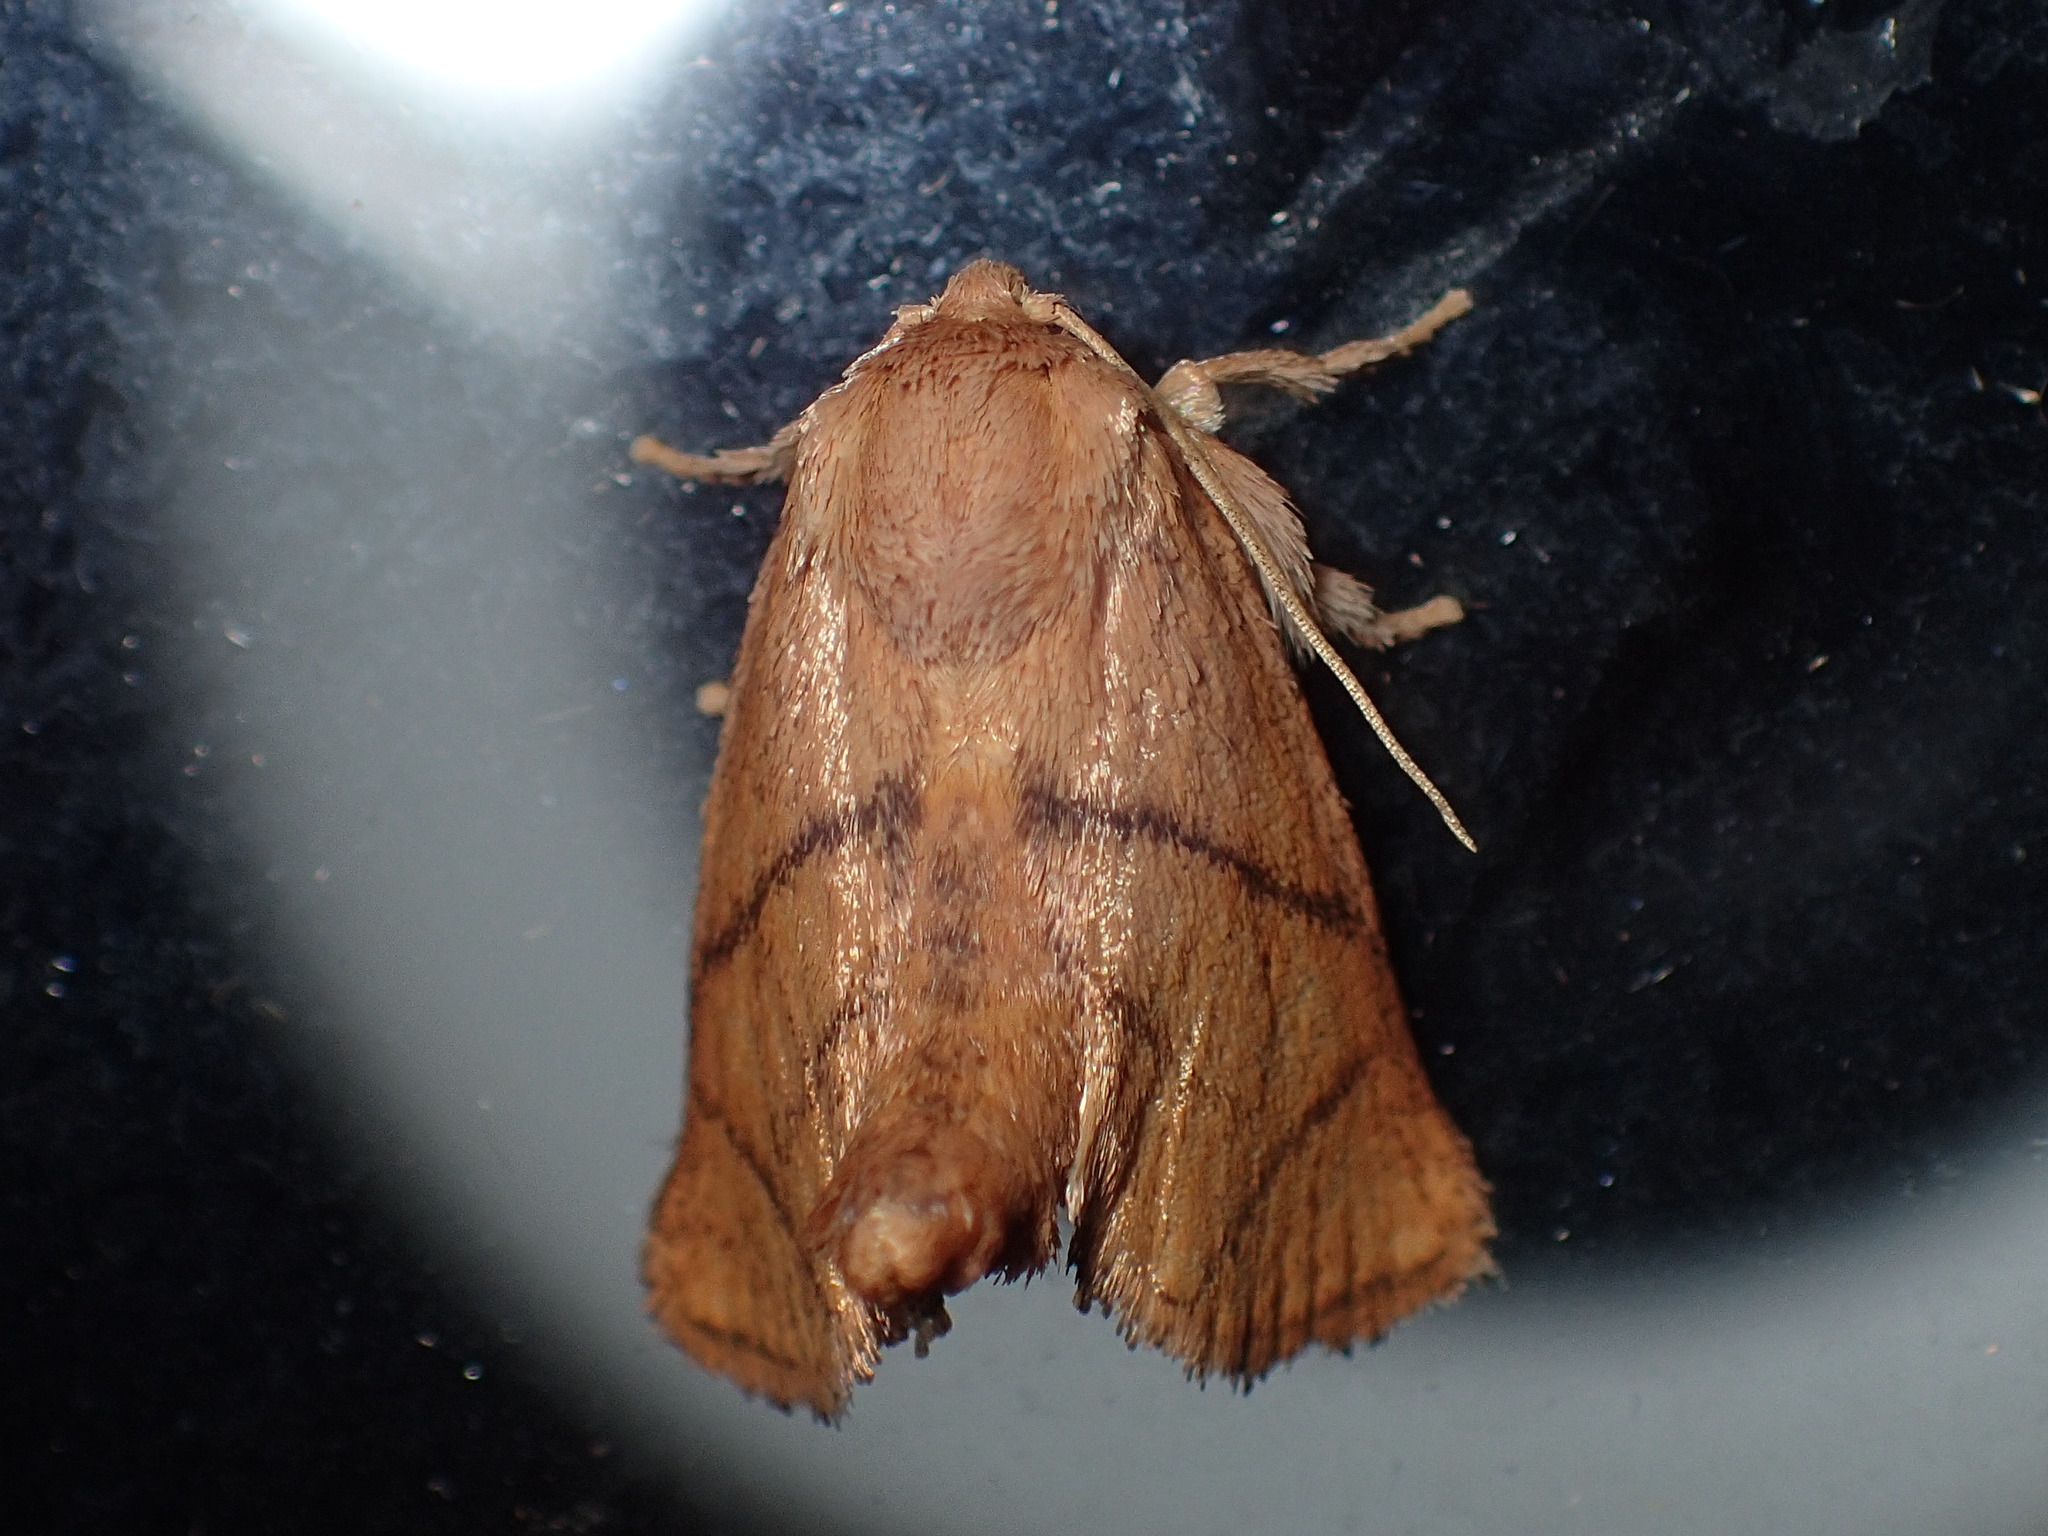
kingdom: Animalia
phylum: Arthropoda
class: Insecta
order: Lepidoptera
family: Limacodidae
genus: Apoda
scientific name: Apoda y-inversa
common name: Yellow-collared slug moth
